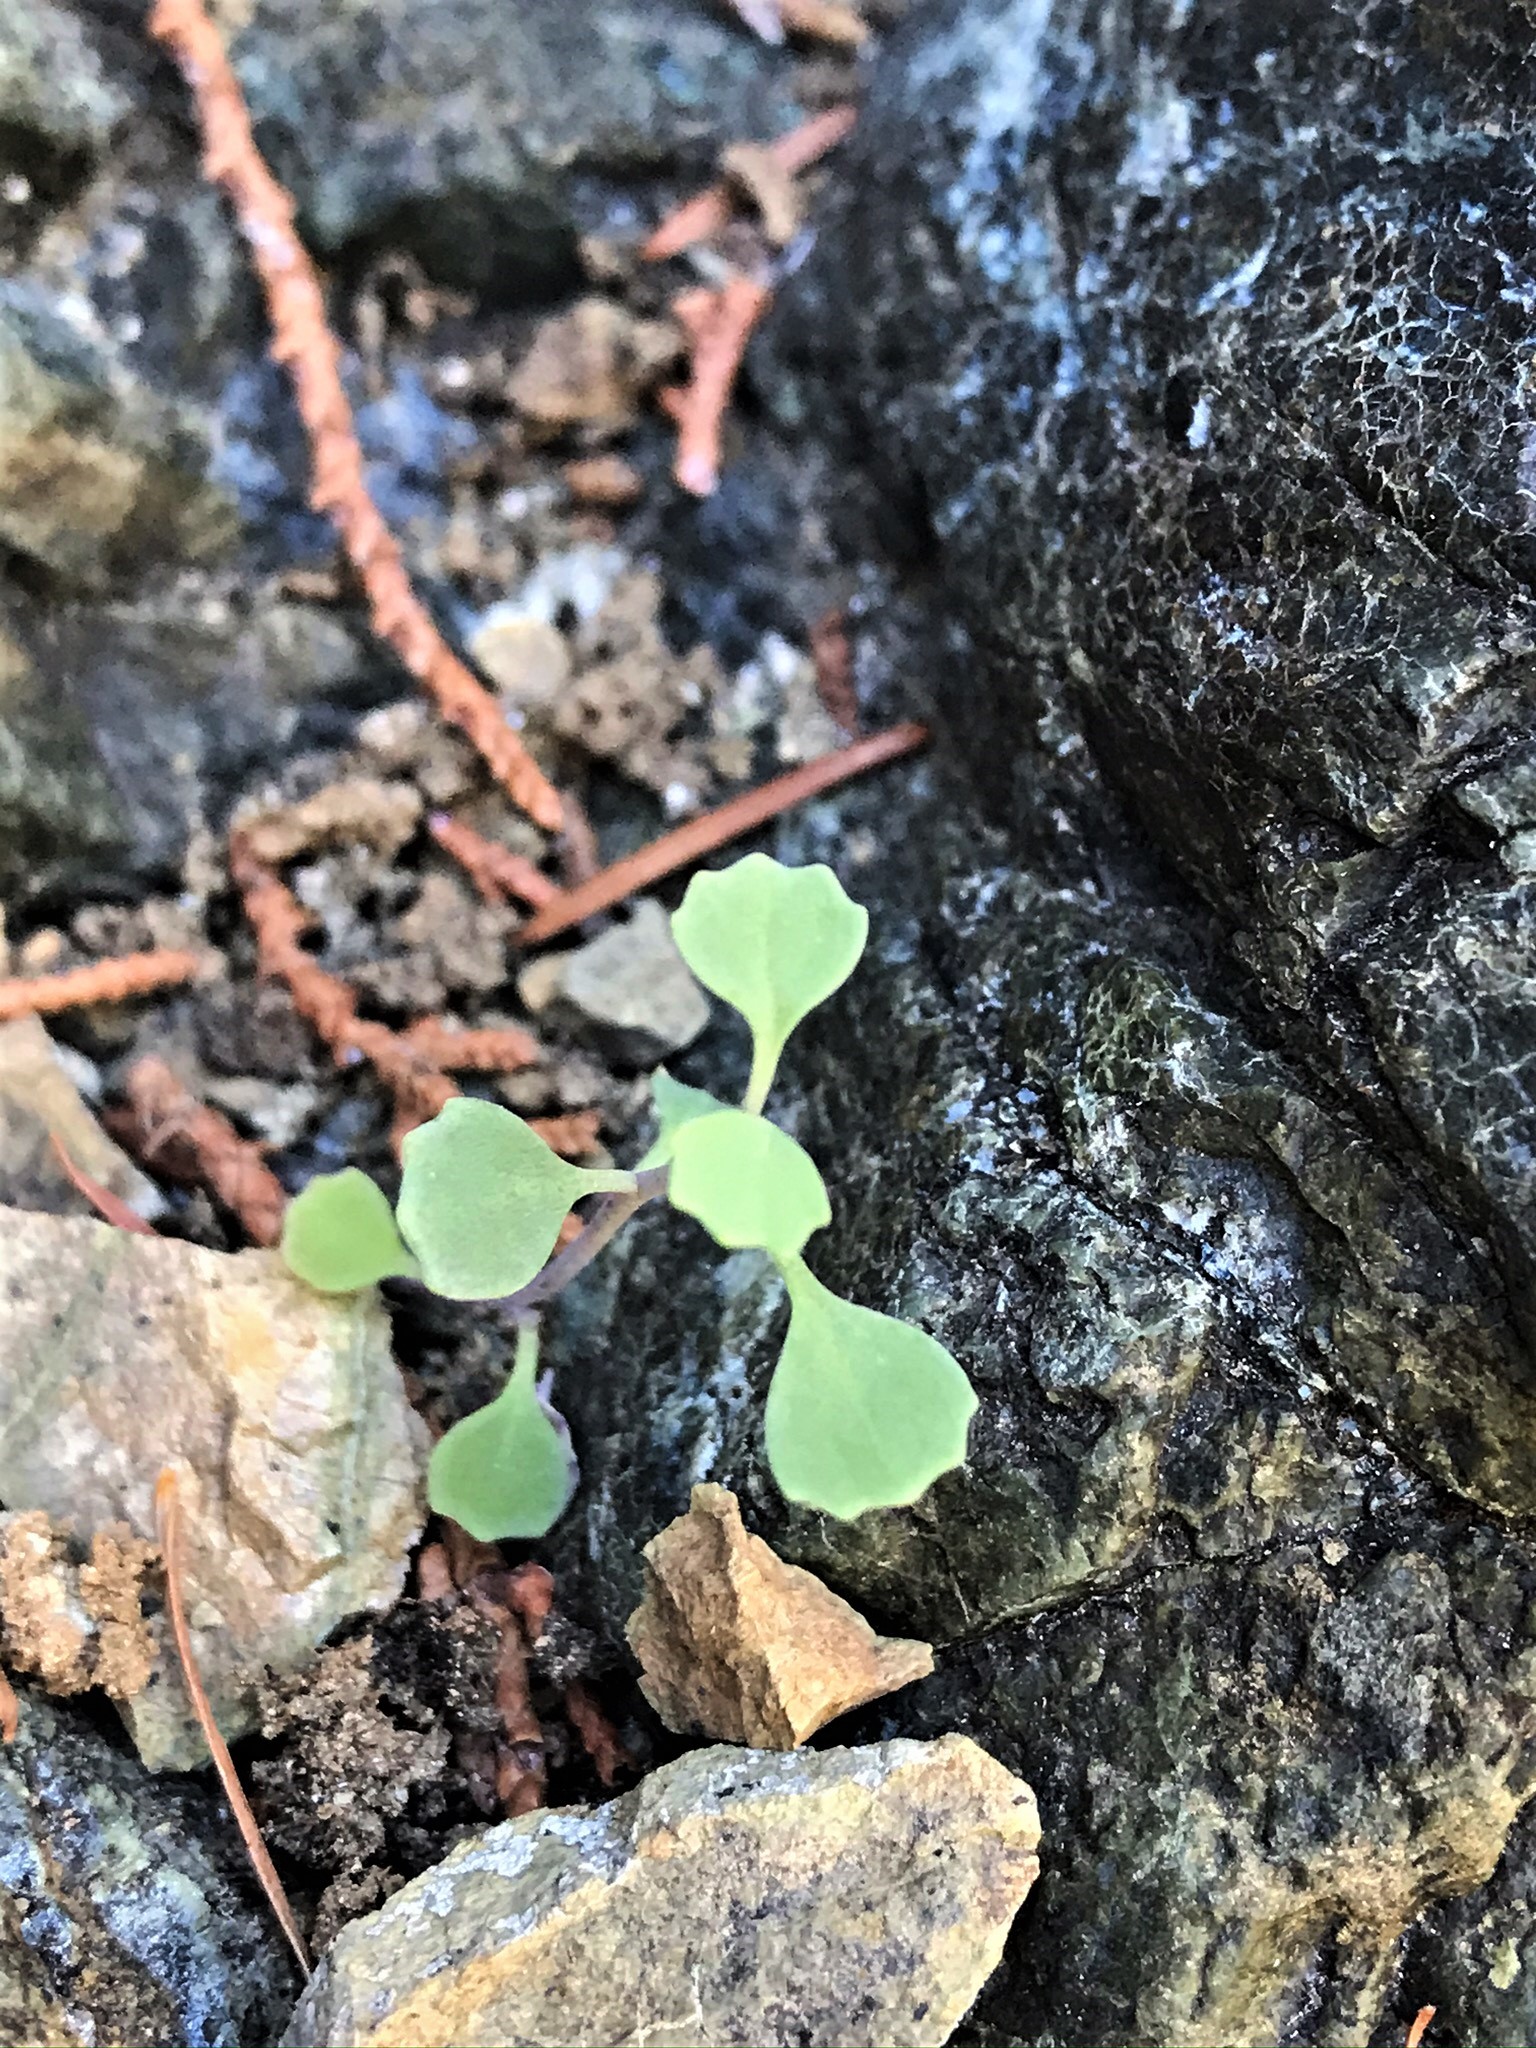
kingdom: Plantae
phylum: Tracheophyta
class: Magnoliopsida
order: Brassicales
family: Brassicaceae
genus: Streptanthus
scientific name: Streptanthus morrisonii
